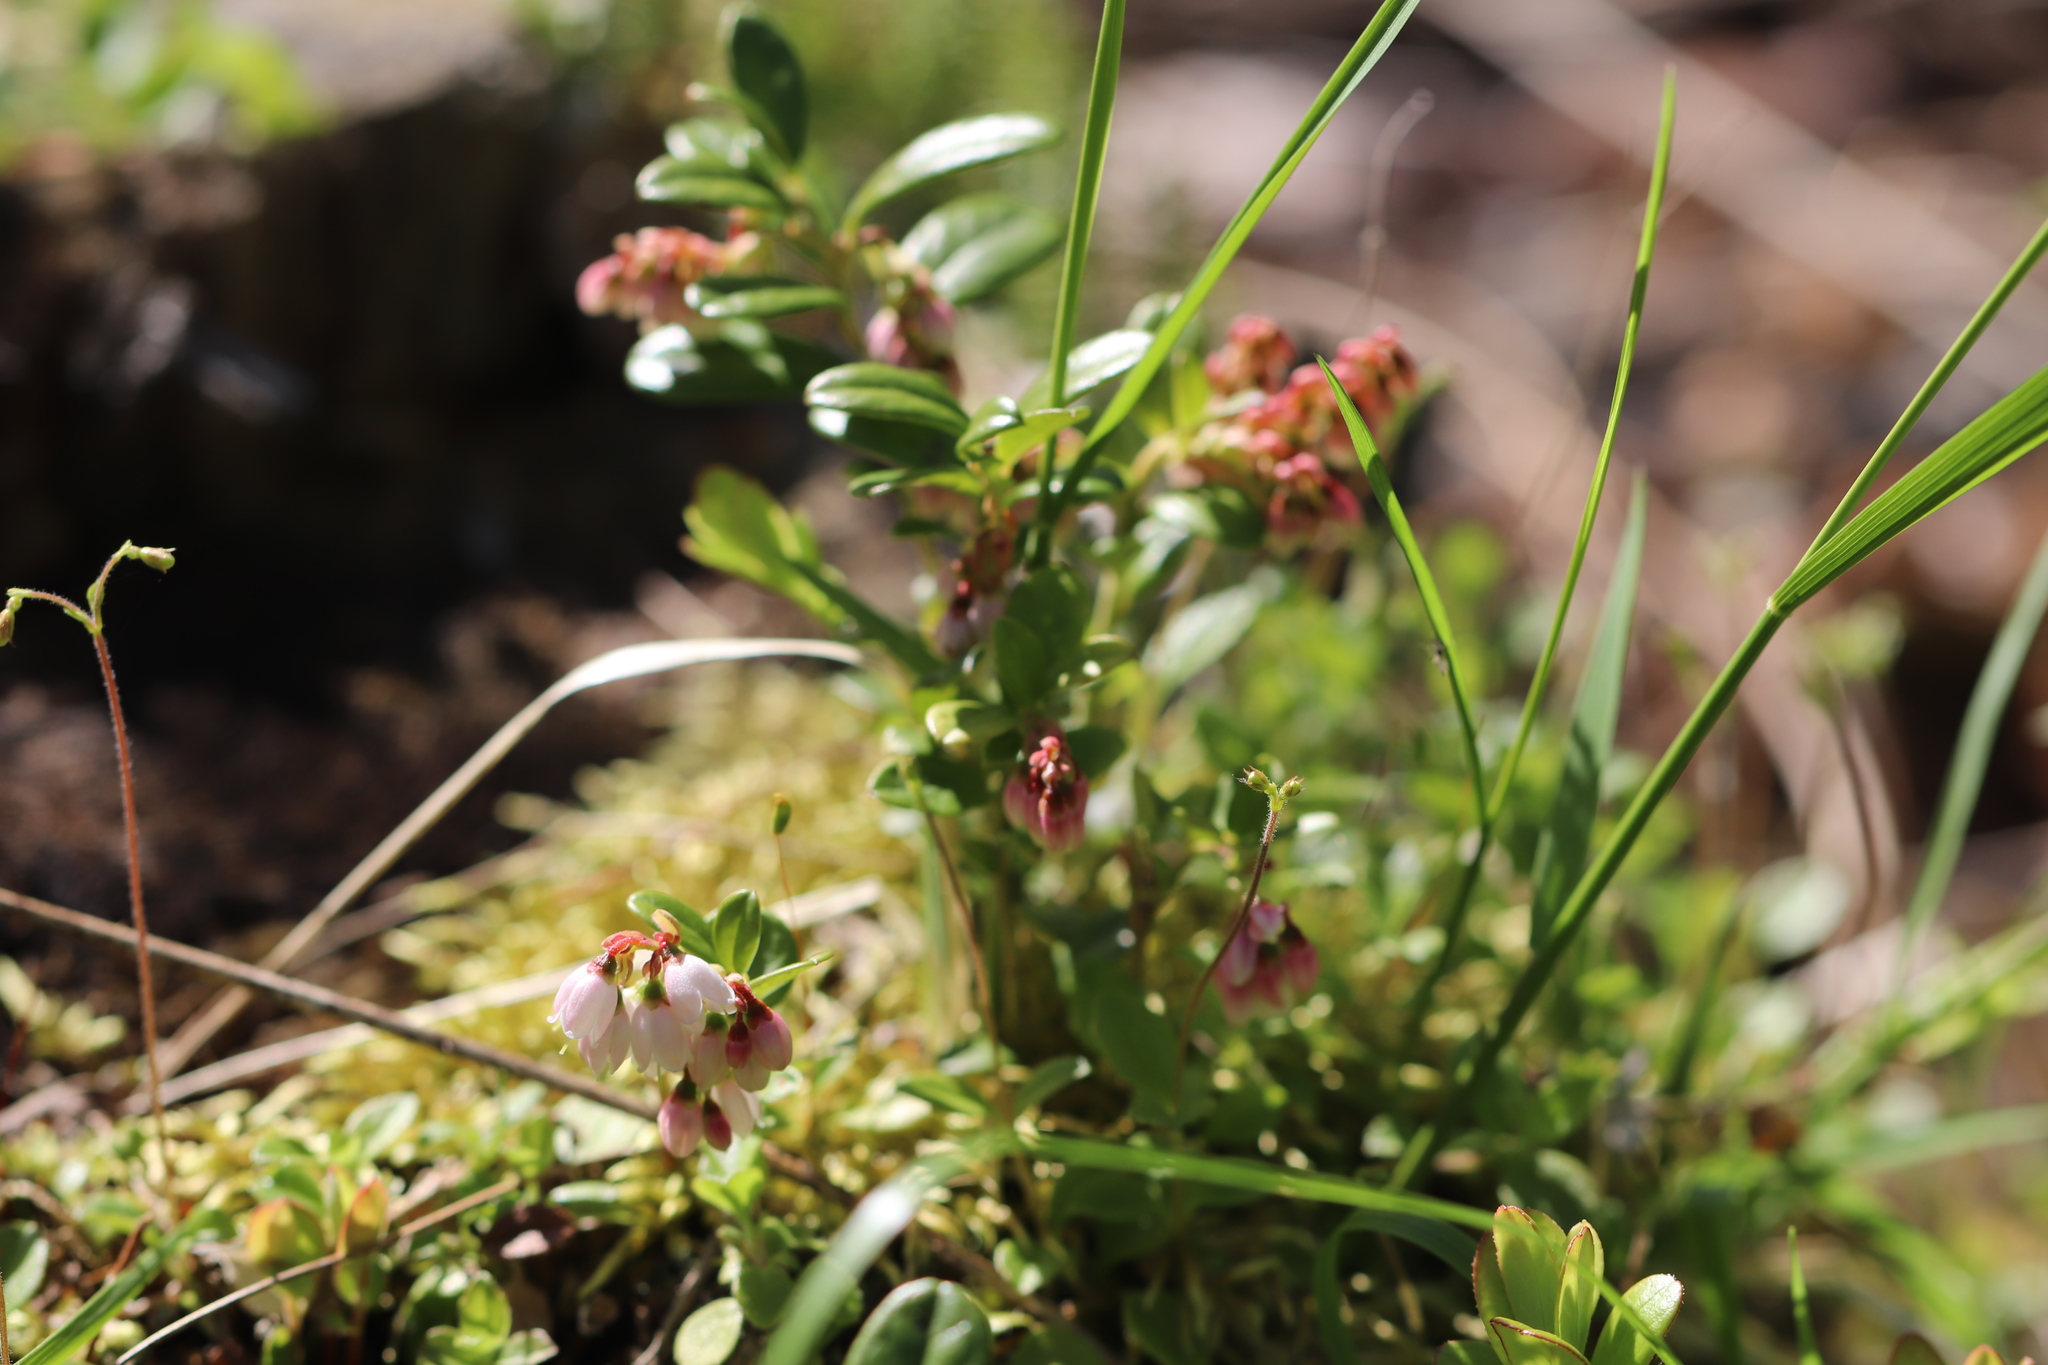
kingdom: Plantae
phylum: Tracheophyta
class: Magnoliopsida
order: Ericales
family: Ericaceae
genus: Vaccinium
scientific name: Vaccinium vitis-idaea
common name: Cowberry
